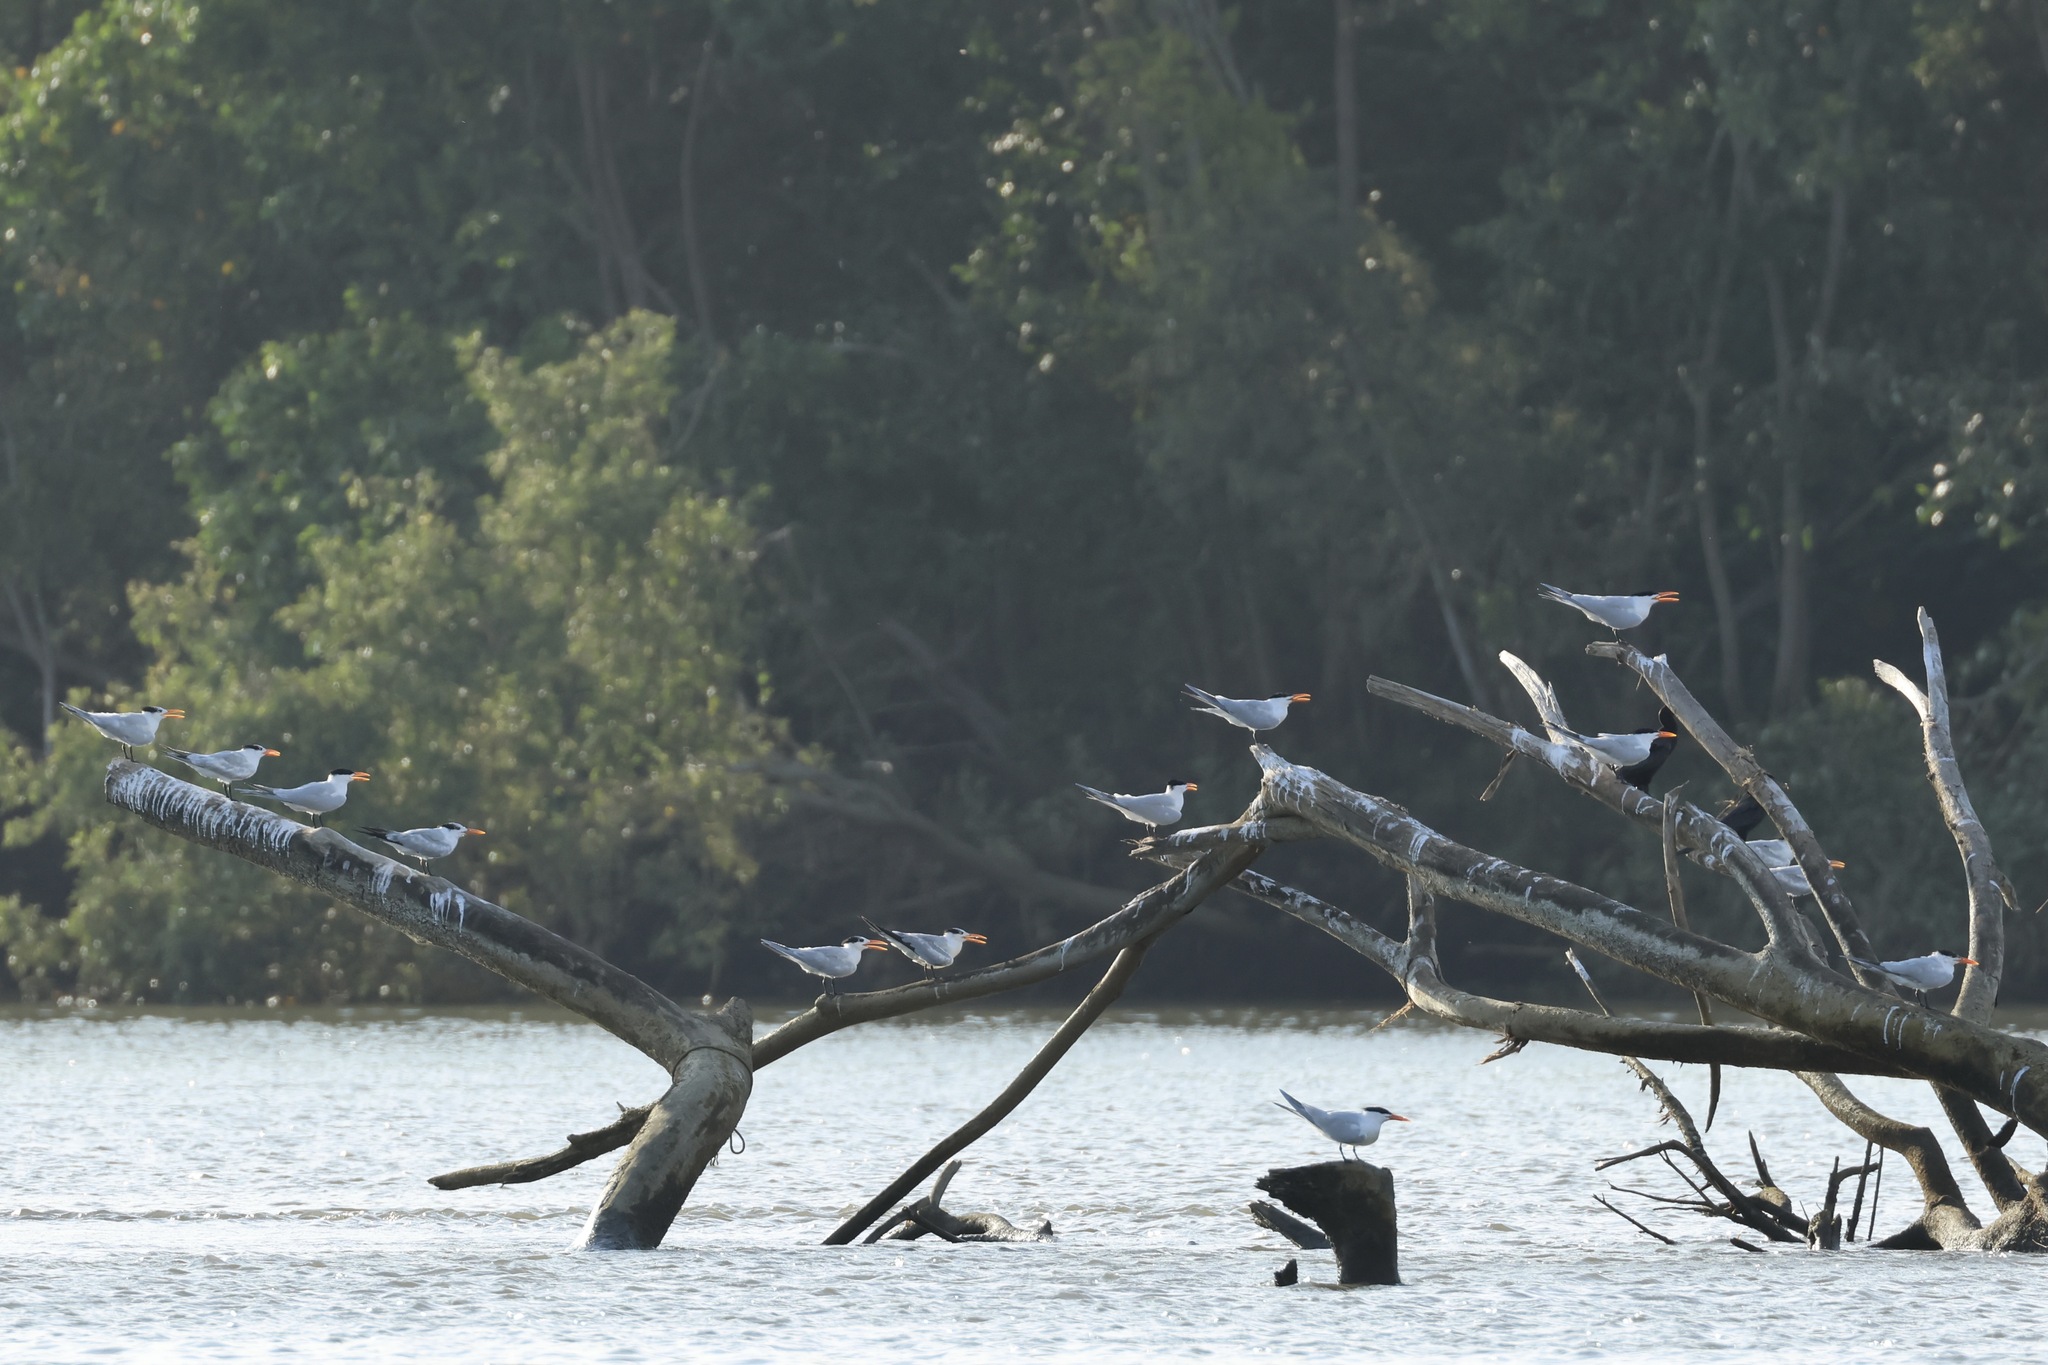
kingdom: Animalia
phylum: Chordata
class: Aves
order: Charadriiformes
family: Laridae
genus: Thalasseus
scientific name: Thalasseus maximus
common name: Royal tern
